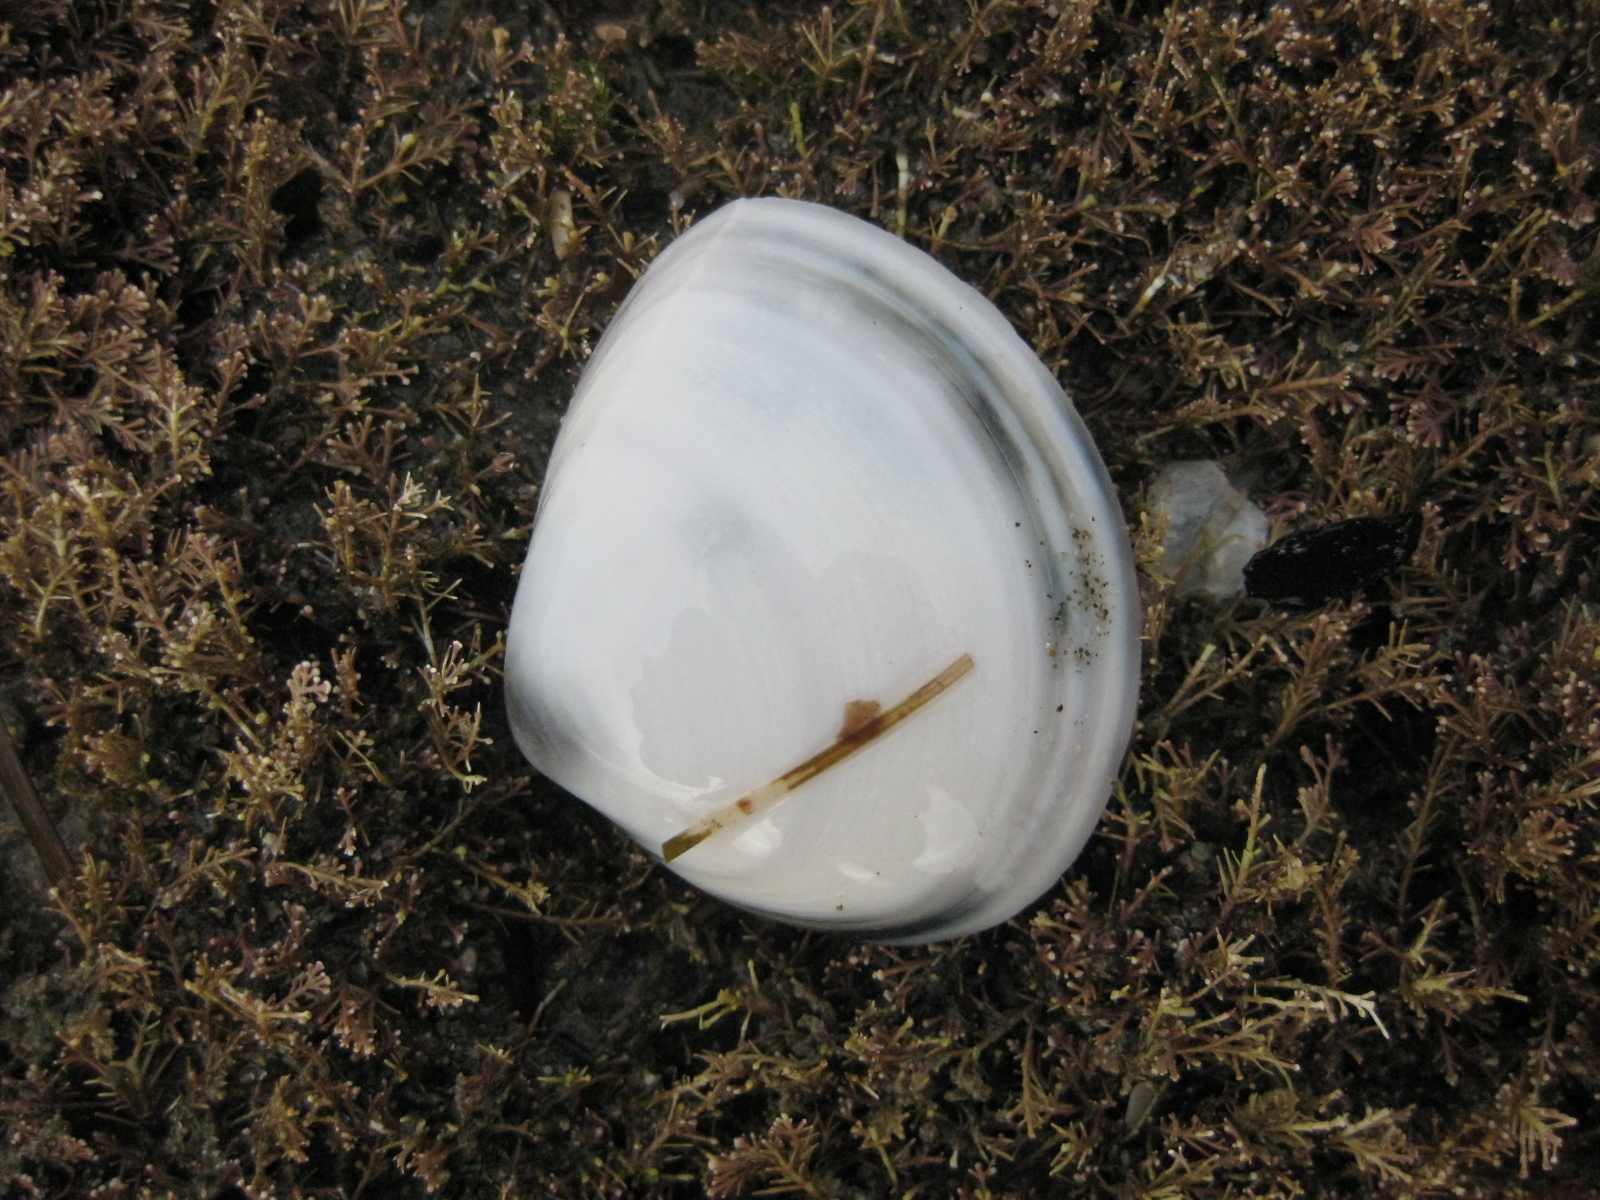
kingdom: Animalia
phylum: Mollusca
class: Bivalvia
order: Venerida
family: Mactridae
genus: Spisula
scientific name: Spisula discors
